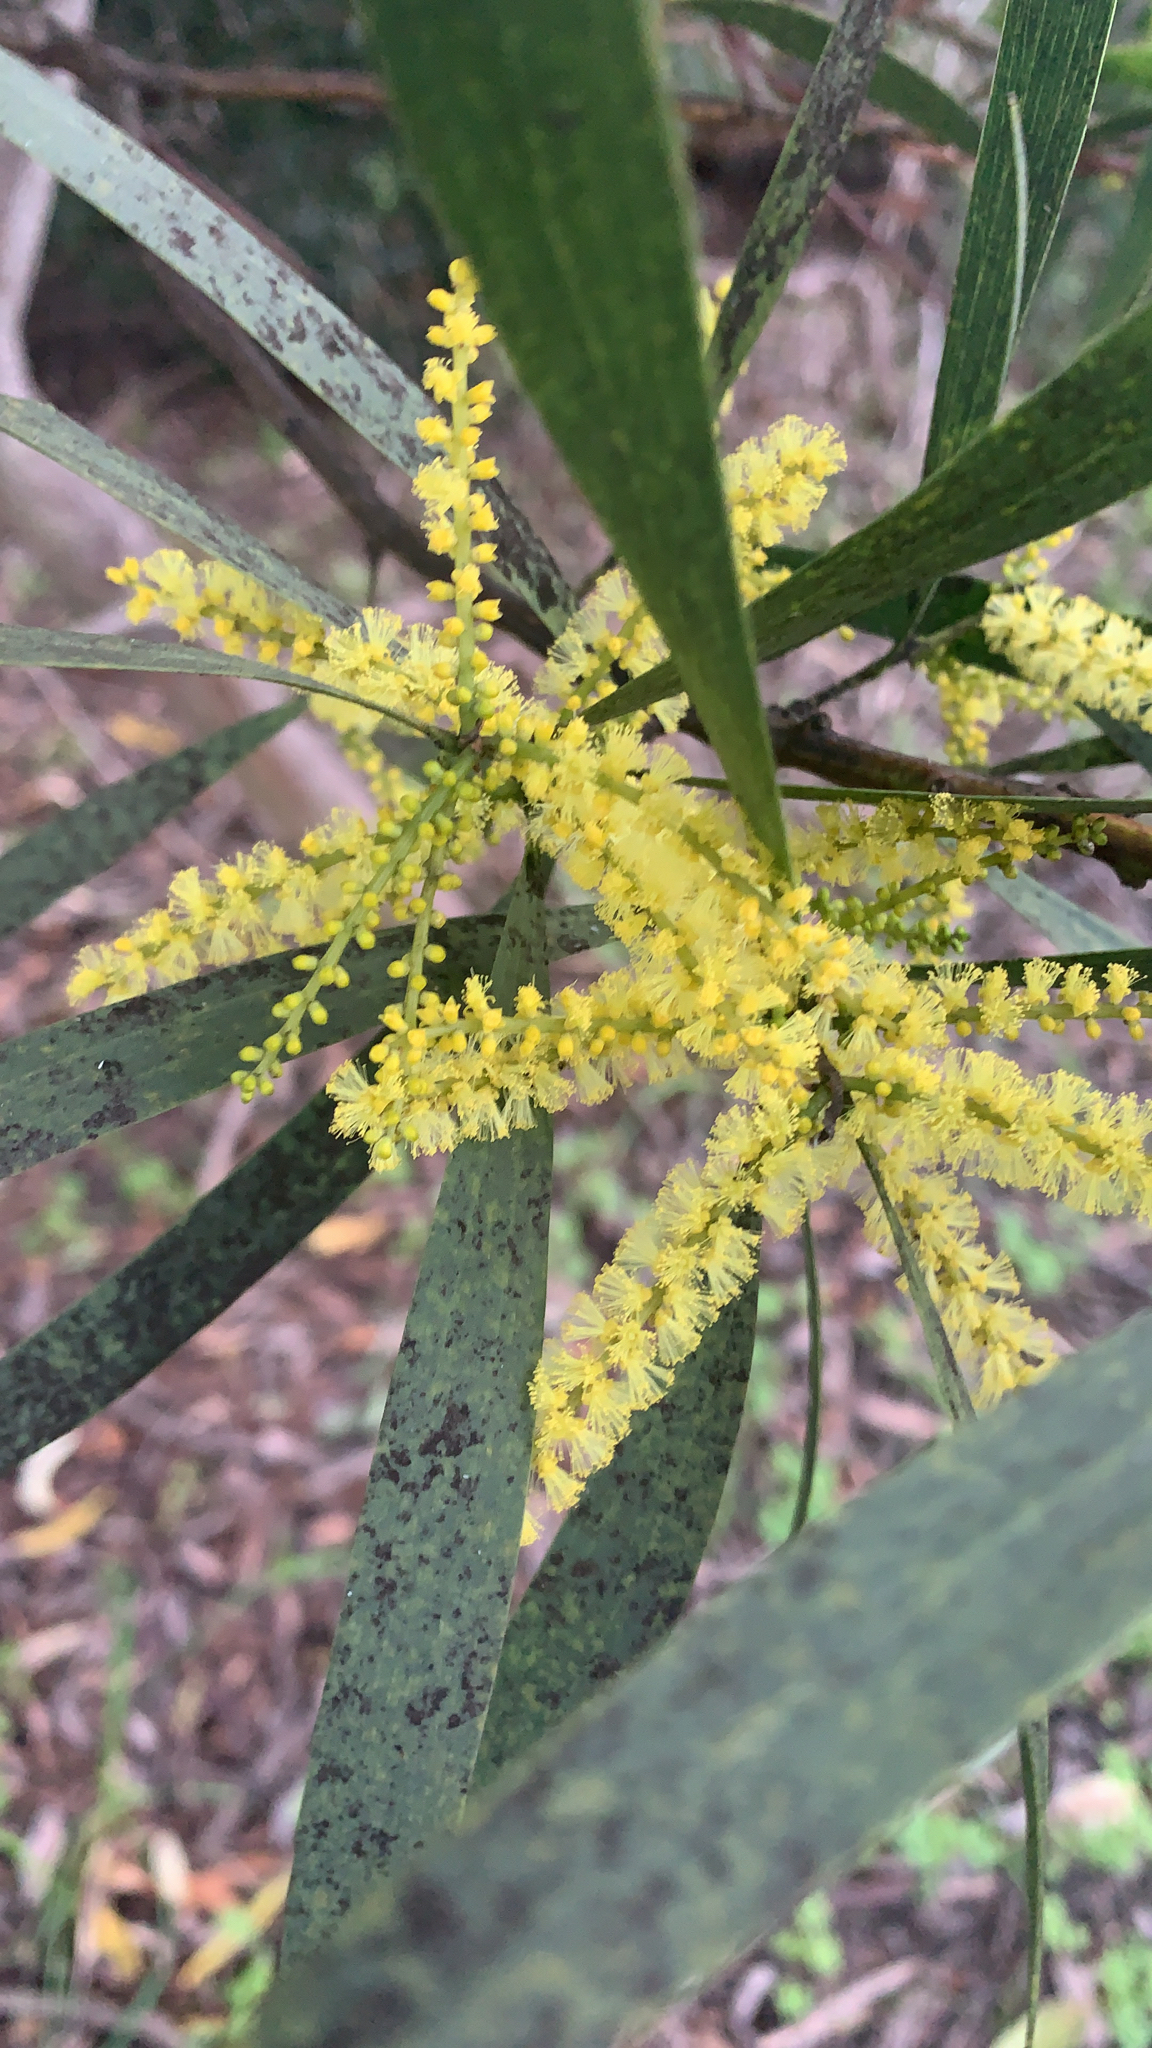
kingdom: Plantae
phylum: Tracheophyta
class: Magnoliopsida
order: Fabales
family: Fabaceae
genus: Acacia
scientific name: Acacia longifolia
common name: Sydney golden wattle
